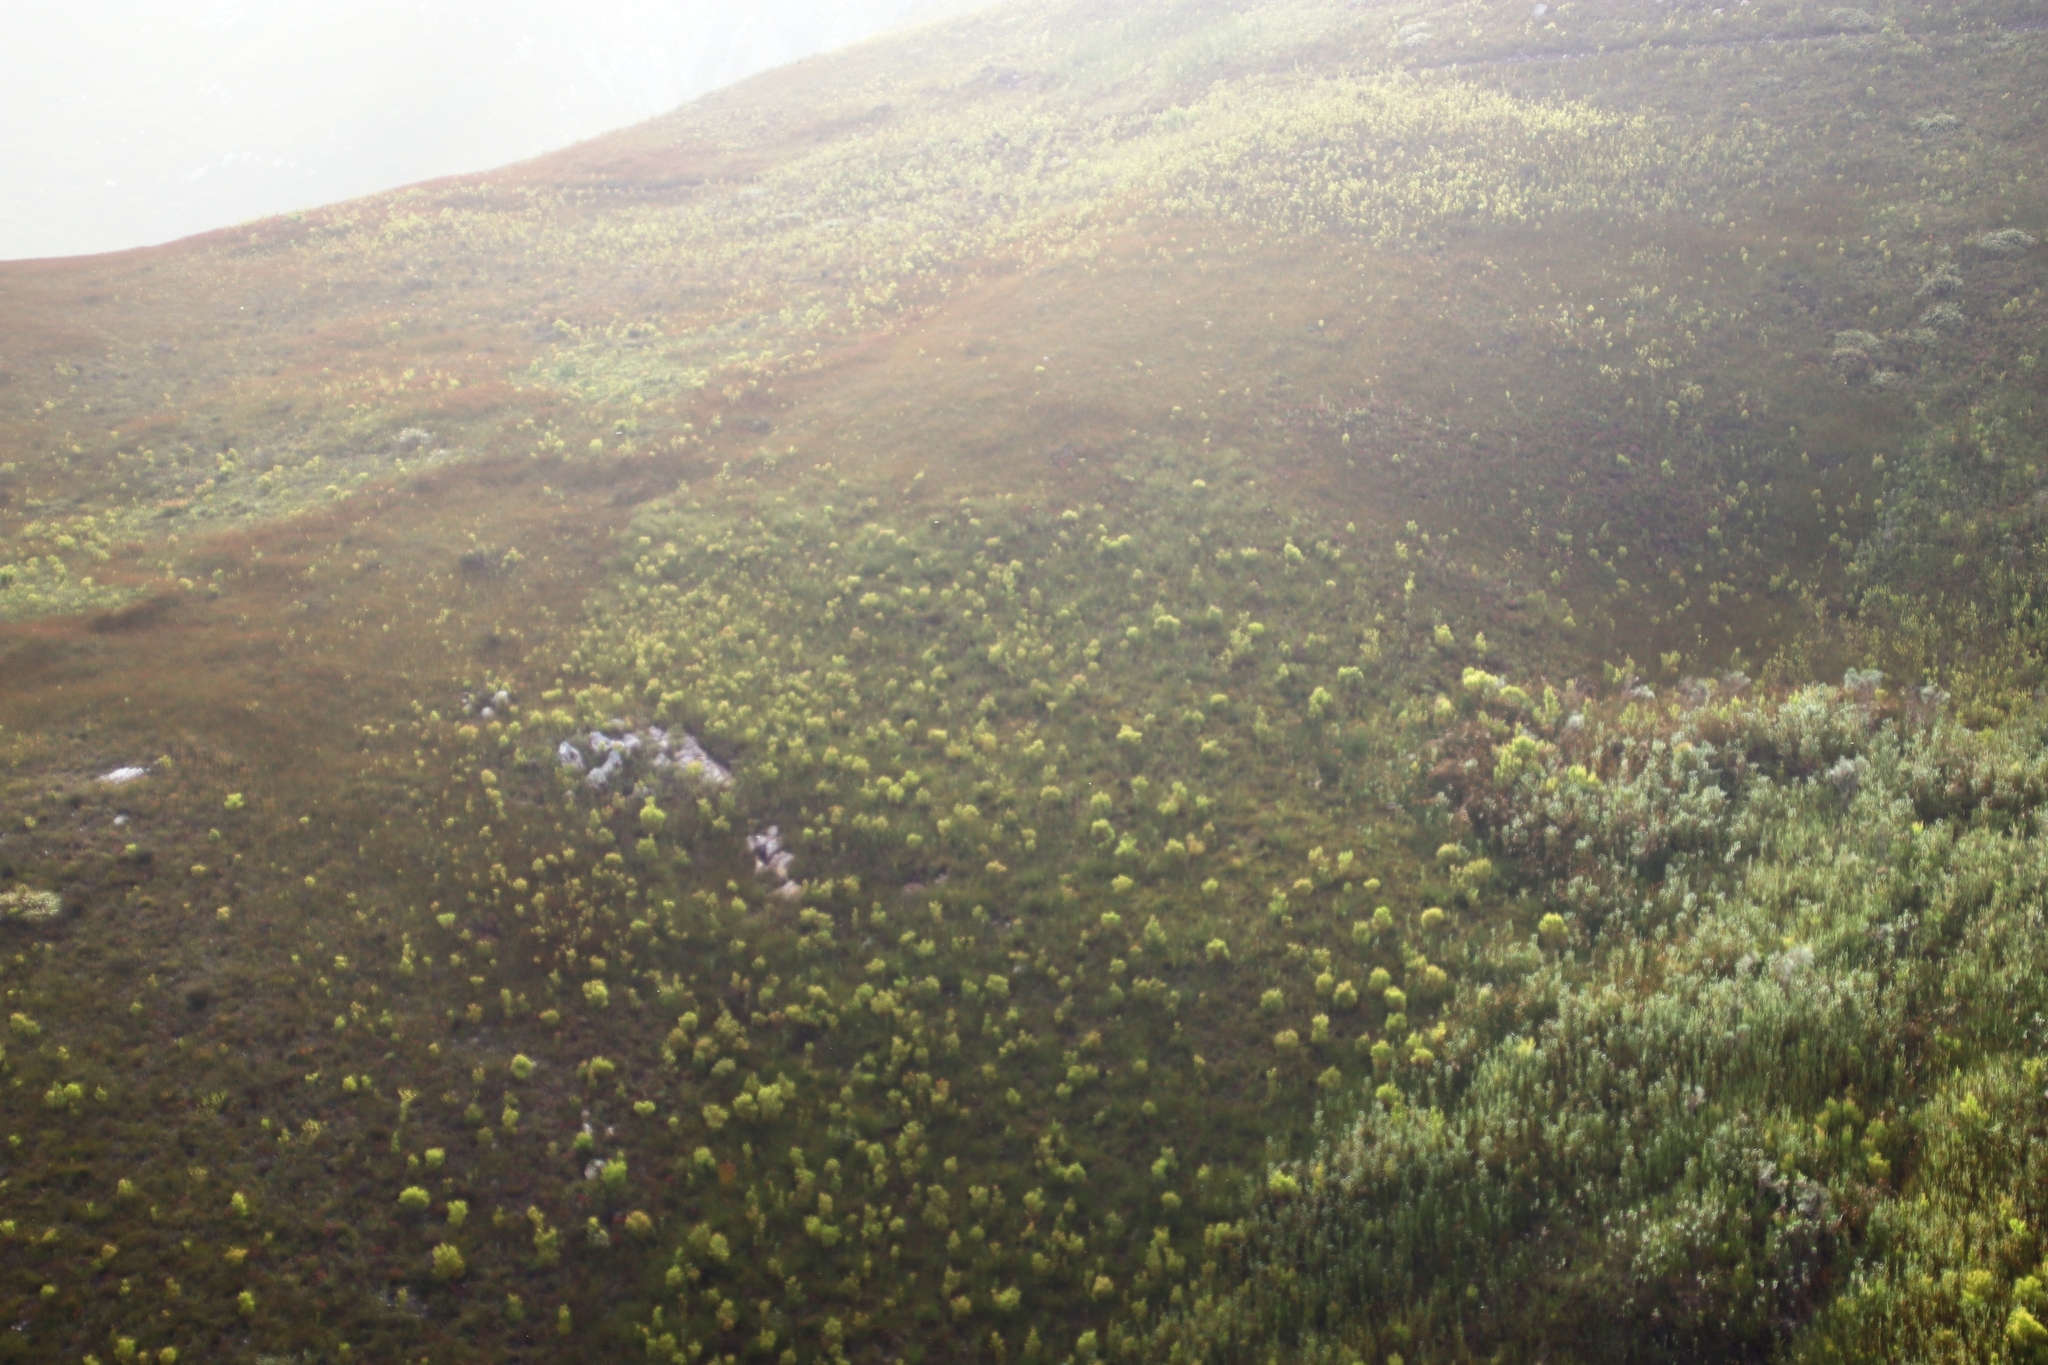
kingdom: Plantae
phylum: Tracheophyta
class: Magnoliopsida
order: Proteales
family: Proteaceae
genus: Leucadendron
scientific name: Leucadendron xanthoconus
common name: Sickle-leaf conebush
